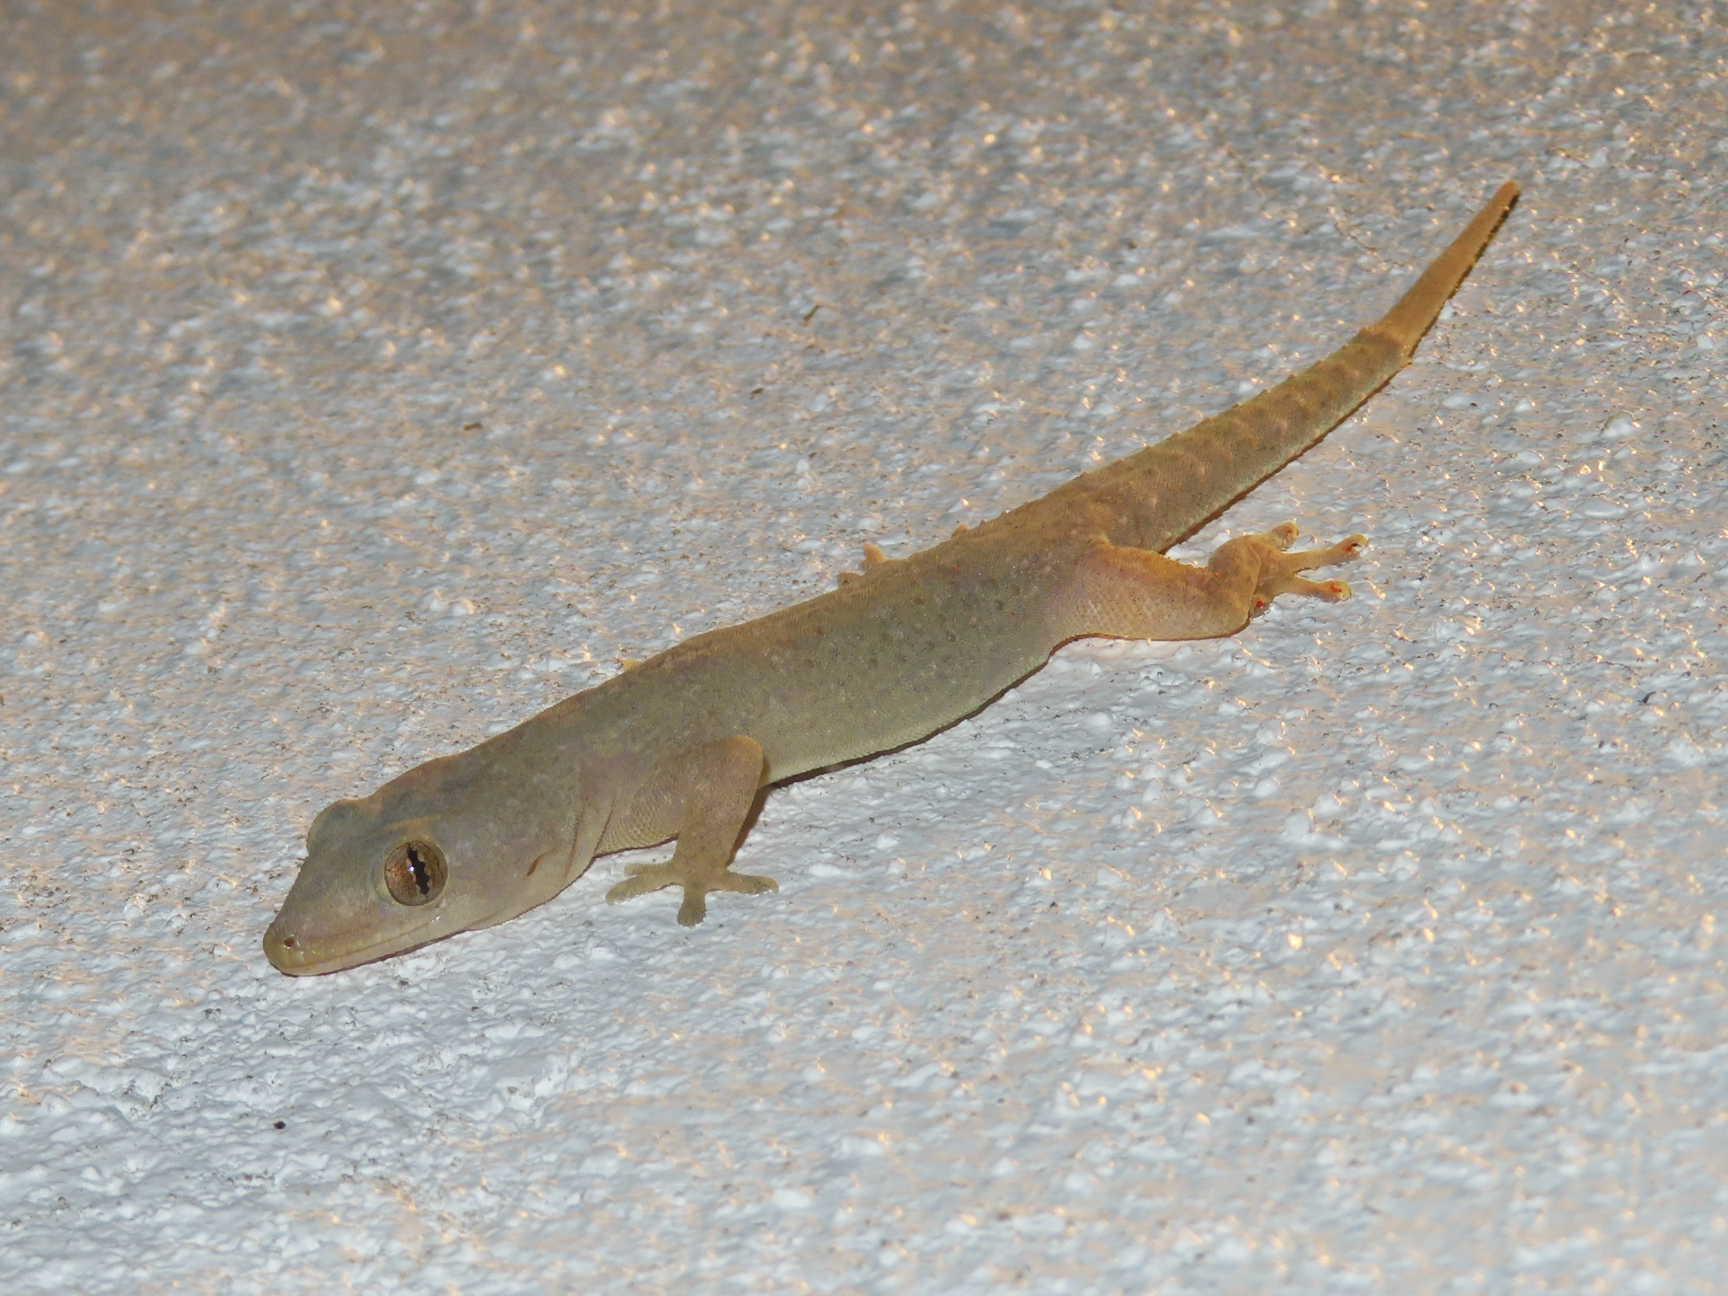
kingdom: Animalia
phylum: Chordata
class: Squamata
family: Gekkonidae
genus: Hemidactylus
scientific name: Hemidactylus frenatus
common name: Common house gecko
